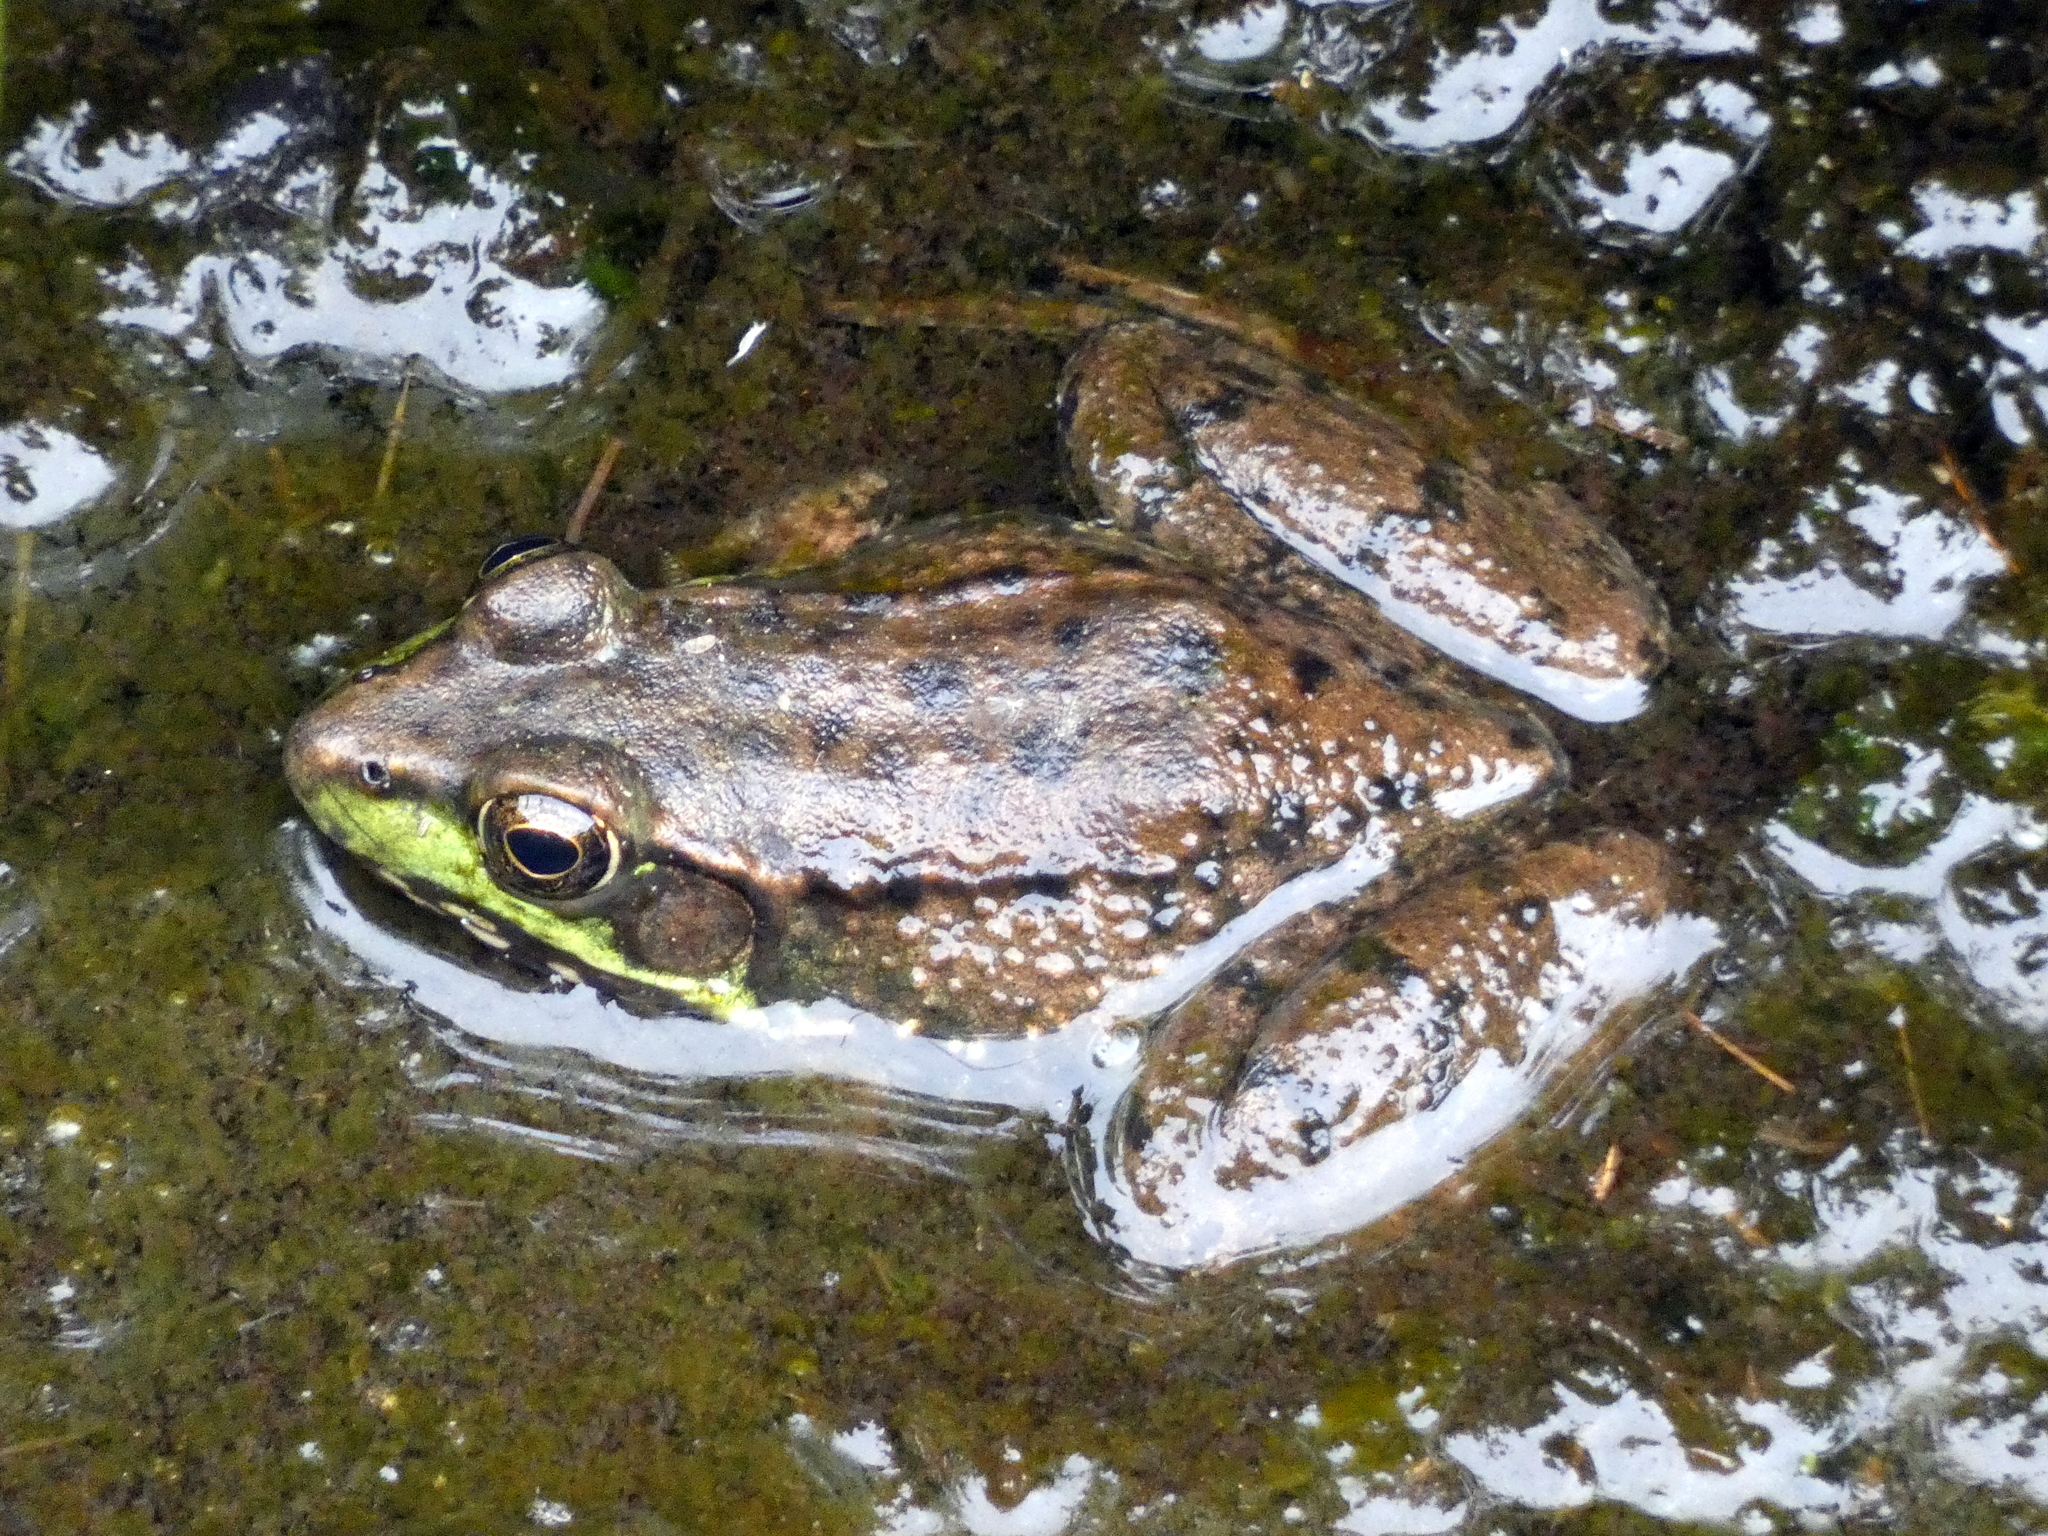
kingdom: Animalia
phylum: Chordata
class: Amphibia
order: Anura
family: Ranidae
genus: Lithobates
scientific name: Lithobates clamitans
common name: Green frog
